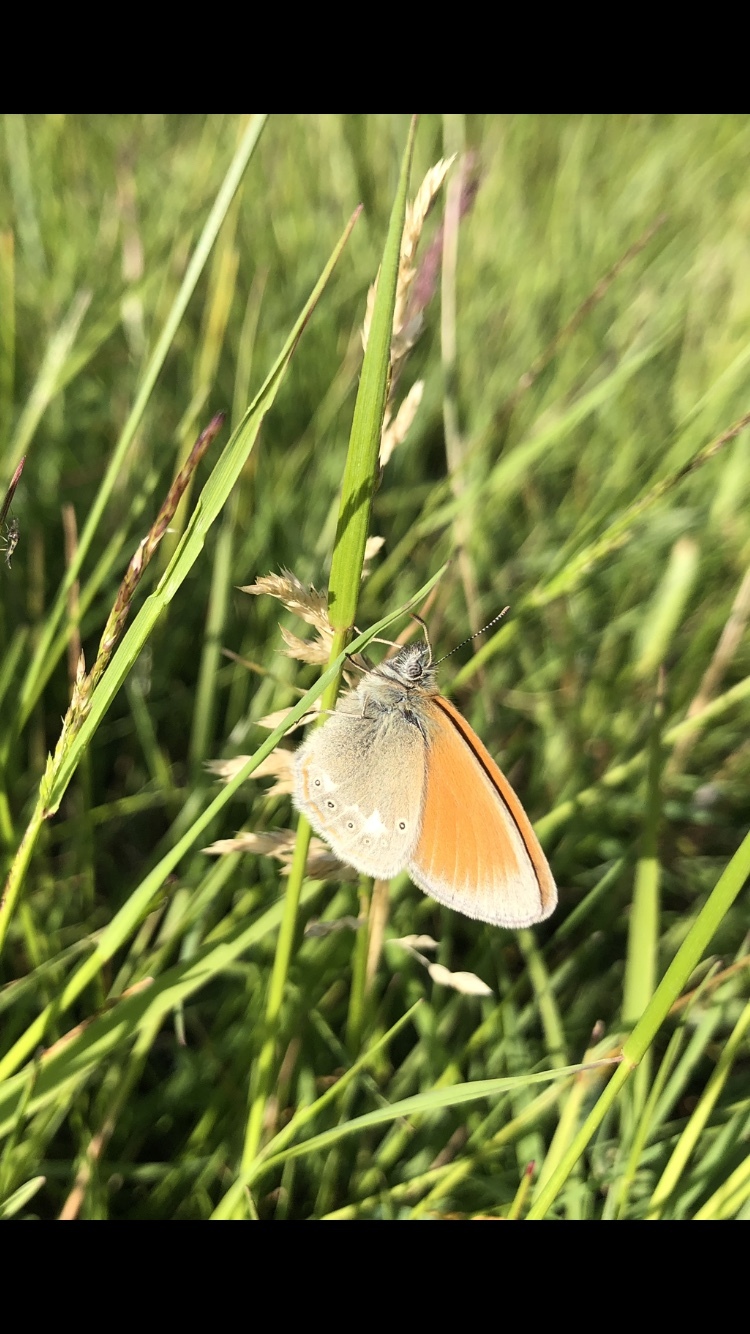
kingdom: Animalia
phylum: Arthropoda
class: Insecta
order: Lepidoptera
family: Nymphalidae
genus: Coenonympha
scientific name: Coenonympha iphis
